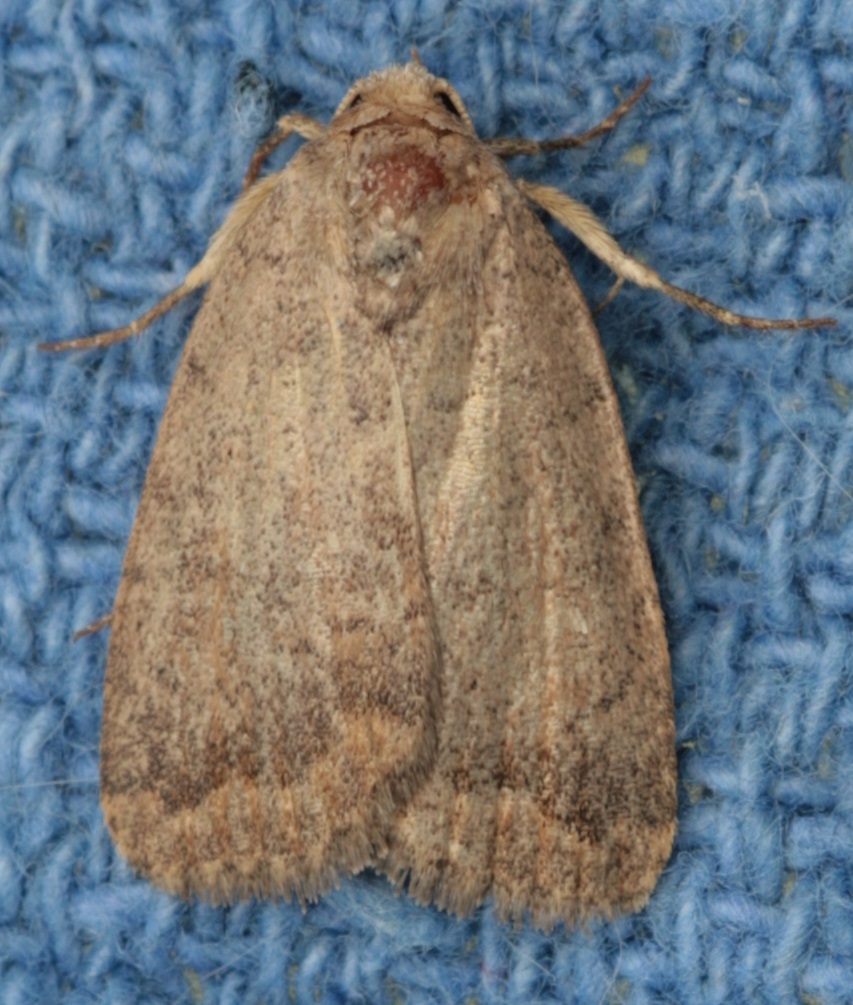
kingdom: Animalia
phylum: Arthropoda
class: Insecta
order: Lepidoptera
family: Noctuidae
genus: Athetis
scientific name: Athetis tarda
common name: Slowpoke moth
